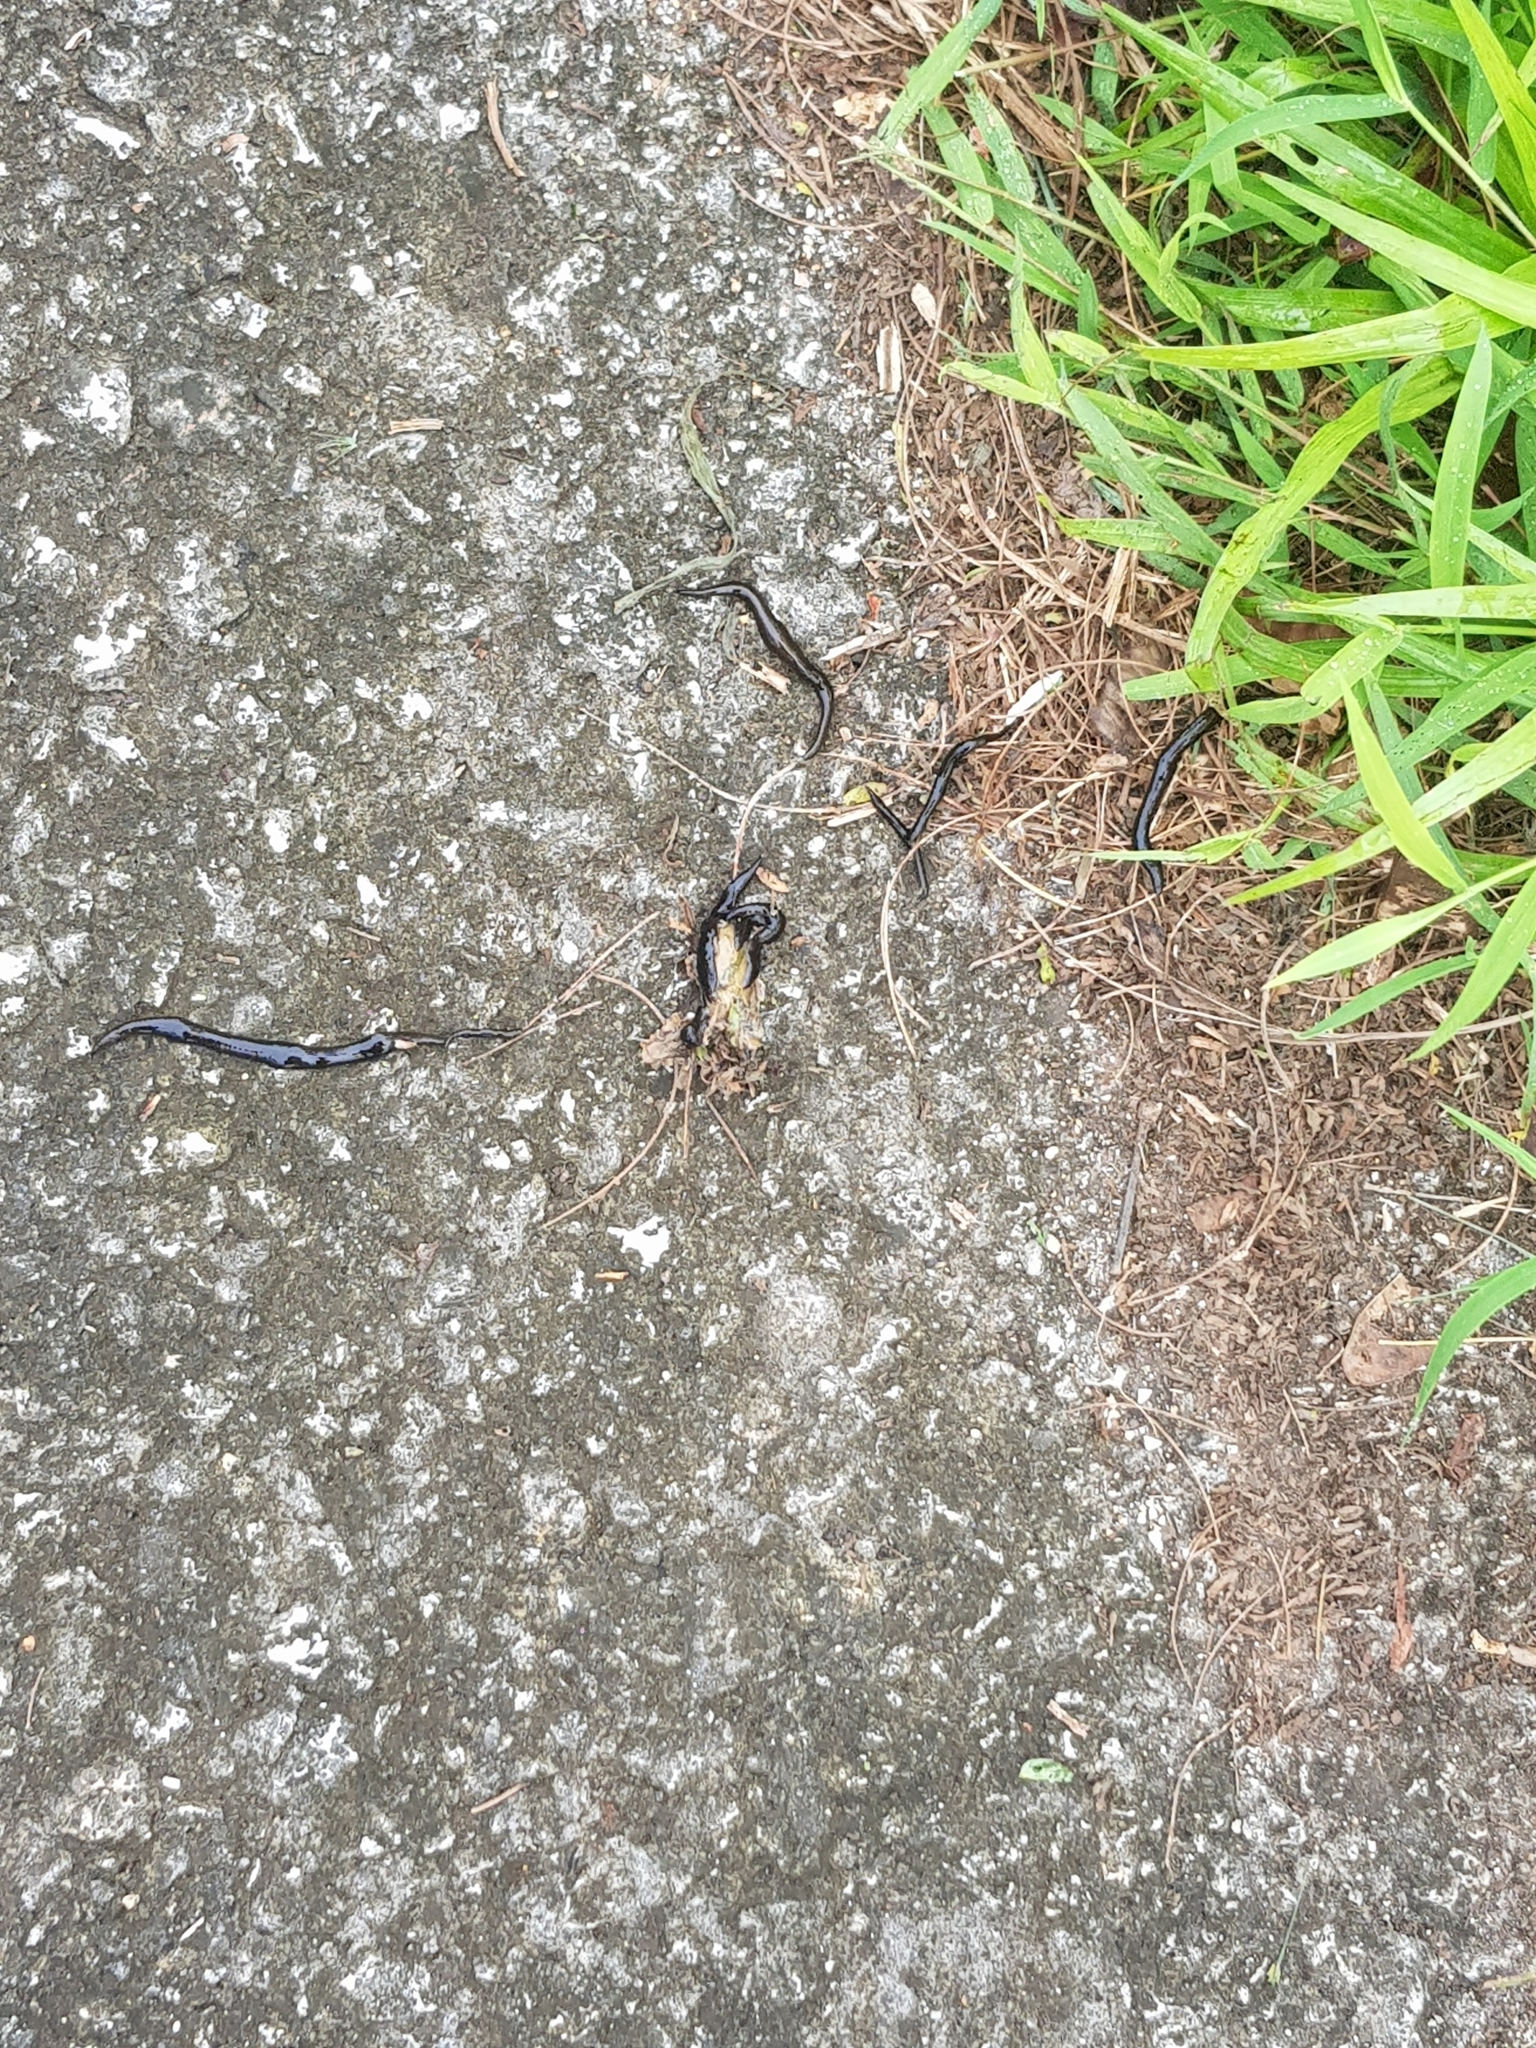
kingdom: Animalia
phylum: Platyhelminthes
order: Tricladida
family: Geoplanidae
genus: Platydemus
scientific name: Platydemus manokwari
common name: New guinea flatworm
